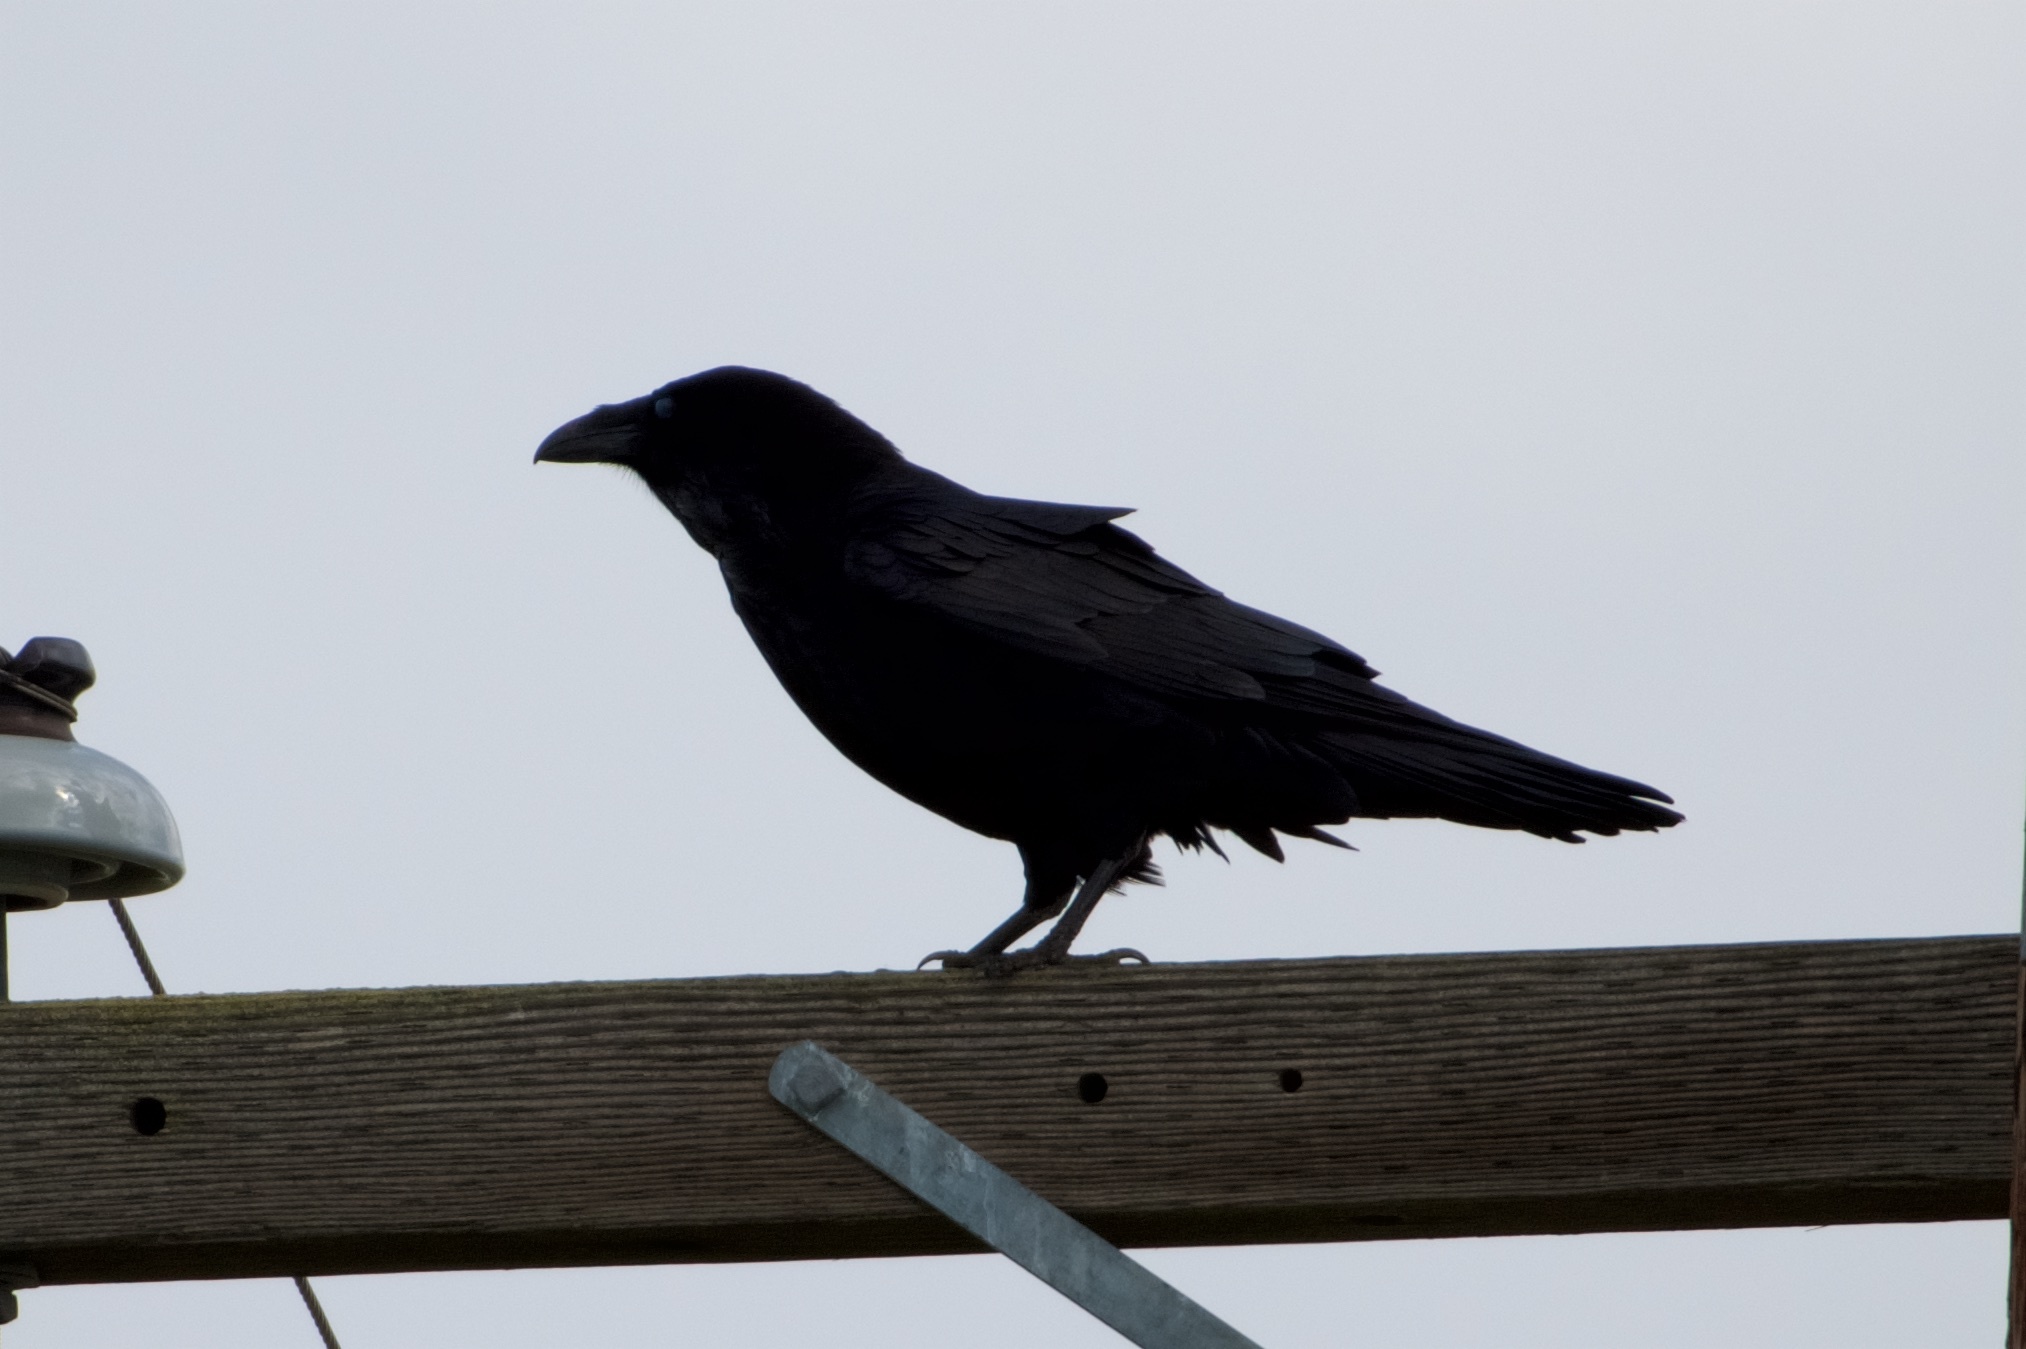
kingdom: Animalia
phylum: Chordata
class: Aves
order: Passeriformes
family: Corvidae
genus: Corvus
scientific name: Corvus corax
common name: Common raven
